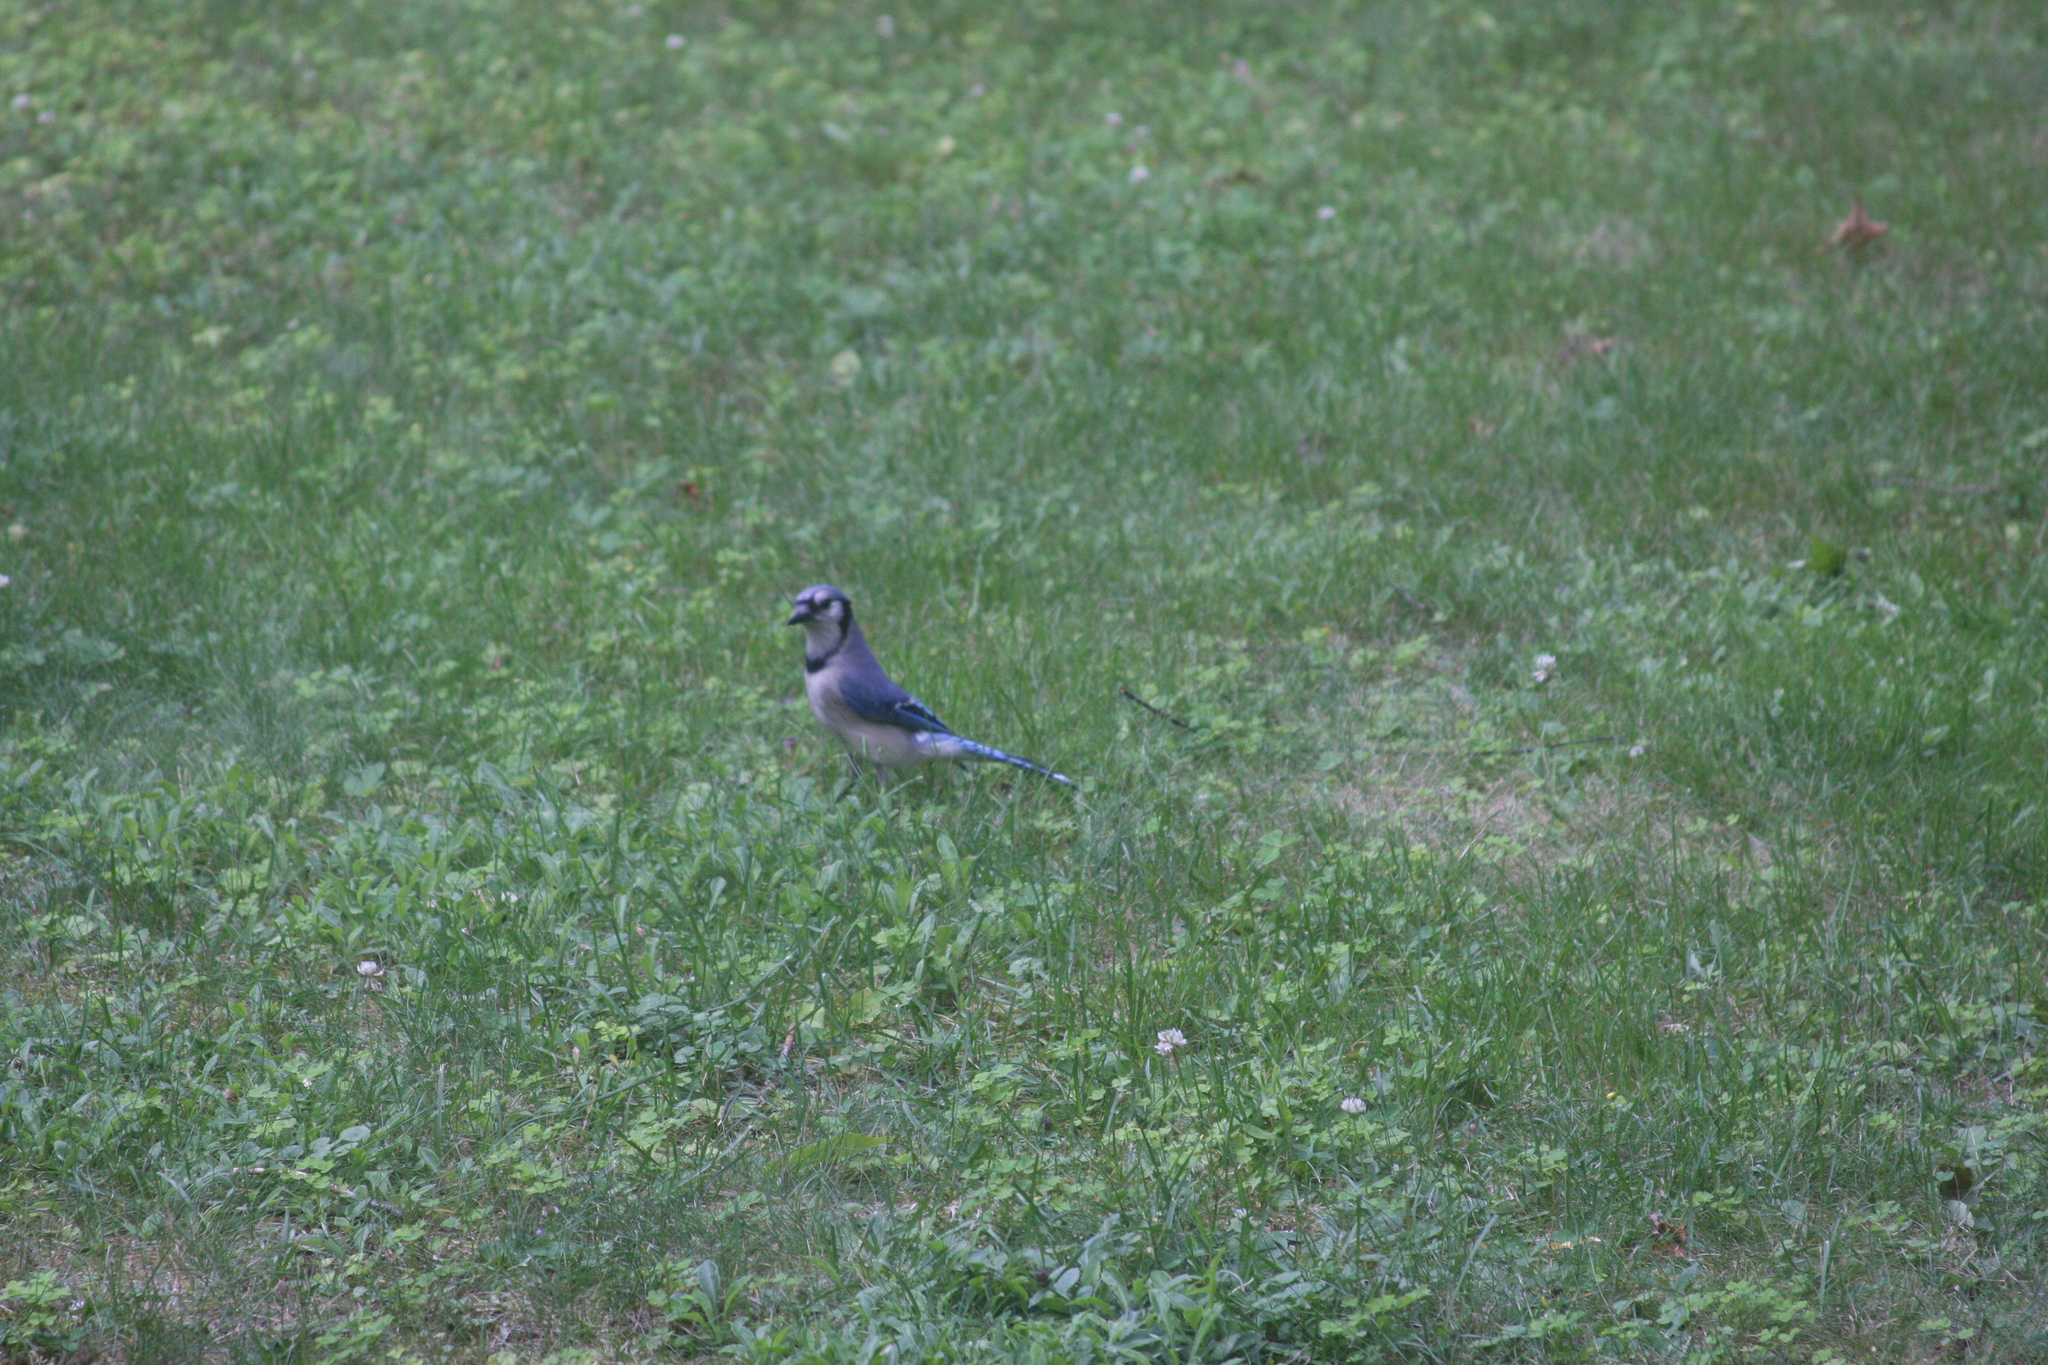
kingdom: Animalia
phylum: Chordata
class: Aves
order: Passeriformes
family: Corvidae
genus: Cyanocitta
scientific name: Cyanocitta cristata
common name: Blue jay
